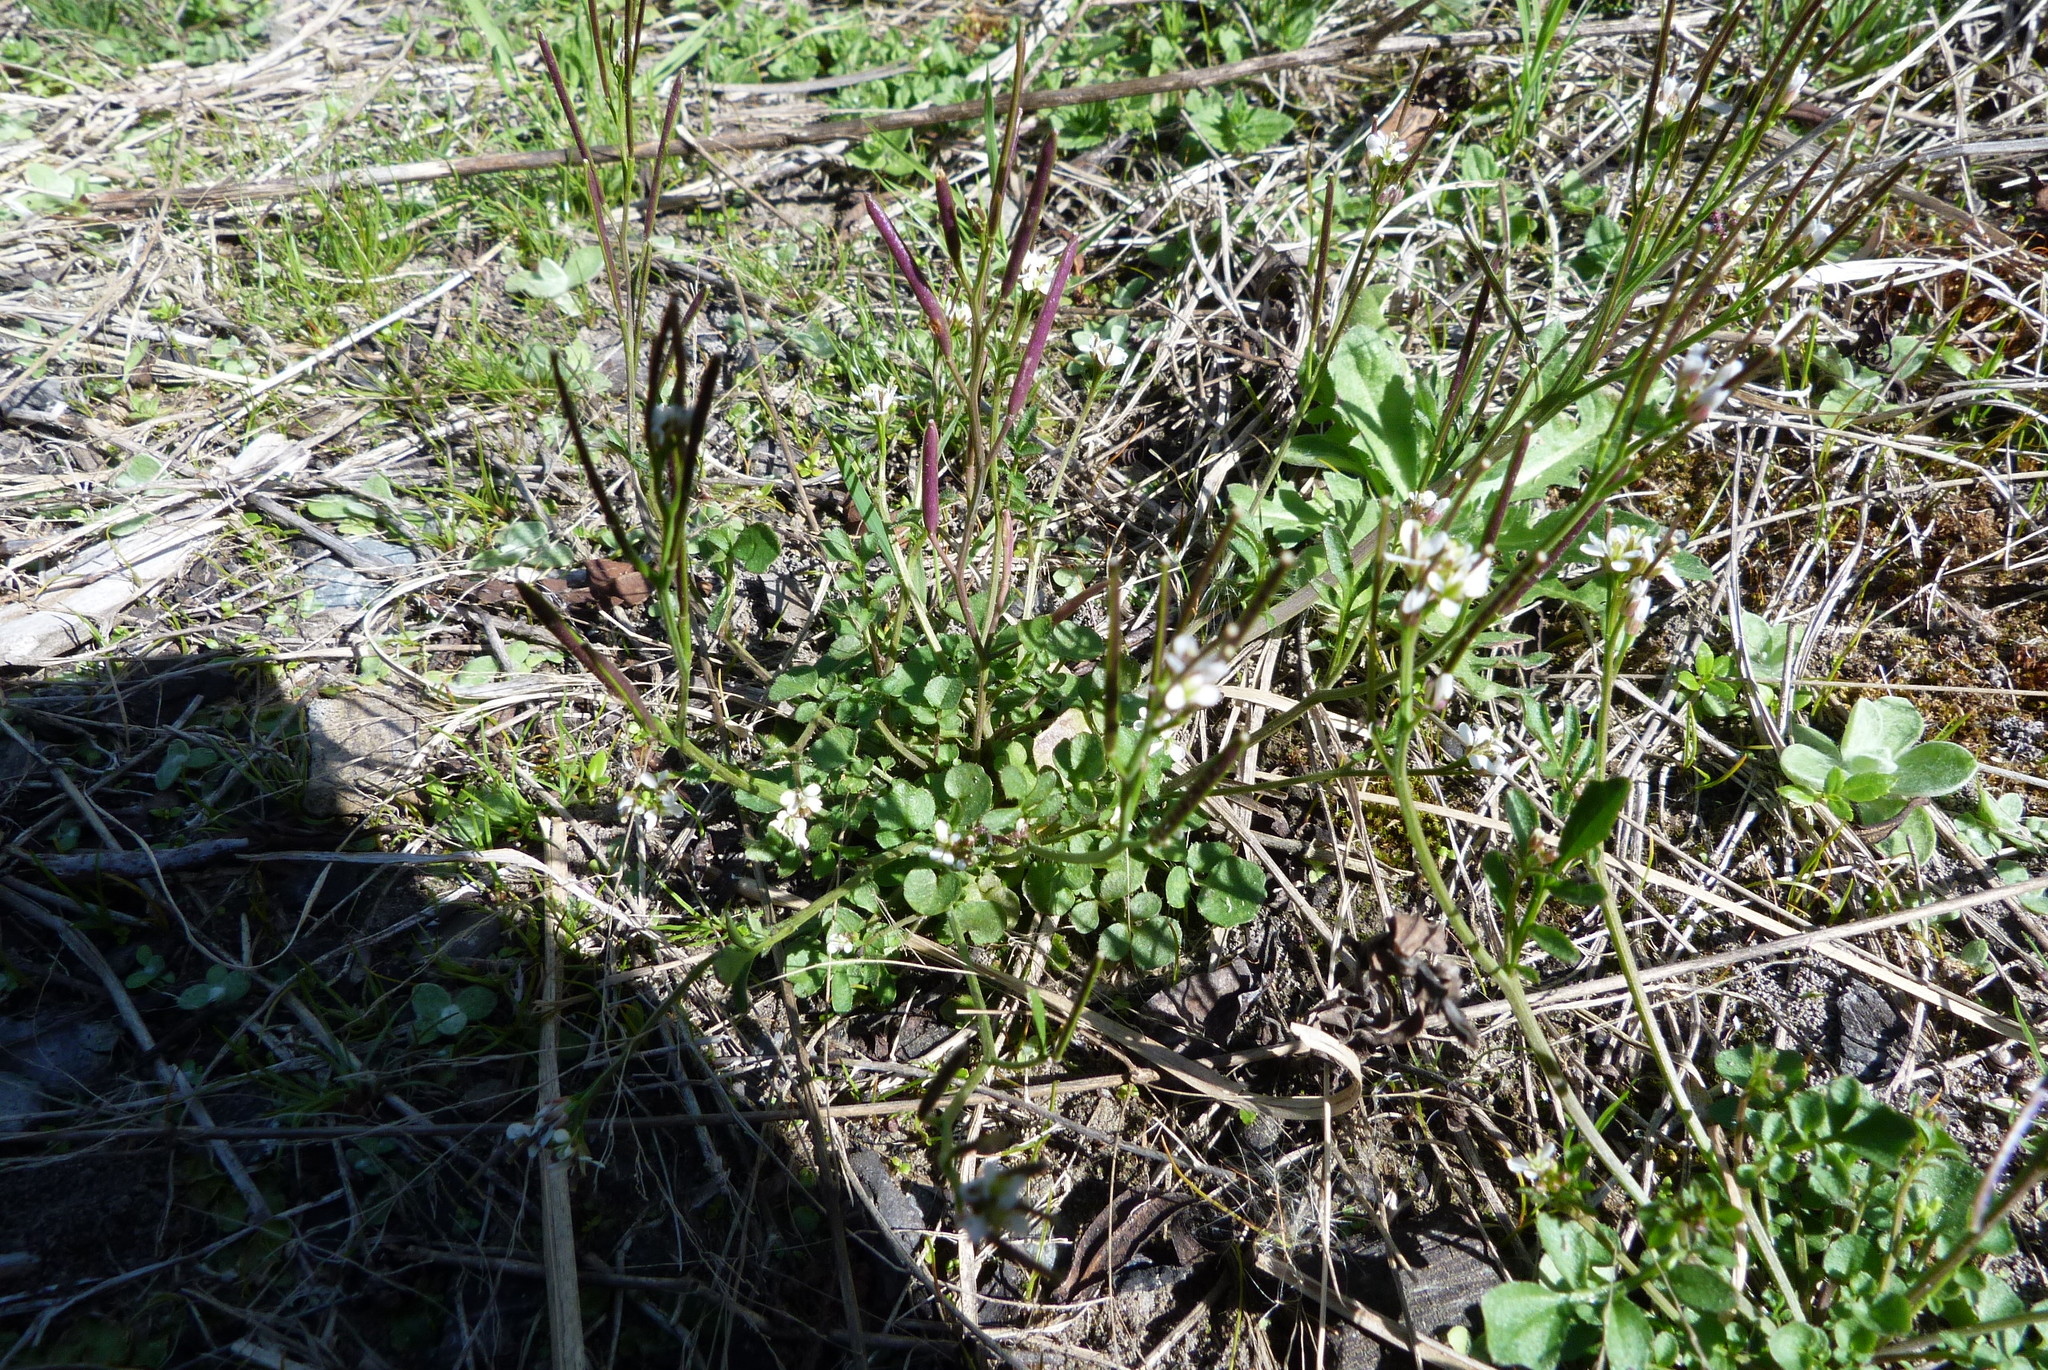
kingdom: Plantae
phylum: Tracheophyta
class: Magnoliopsida
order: Brassicales
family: Brassicaceae
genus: Cardamine
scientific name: Cardamine hirsuta
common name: Hairy bittercress
